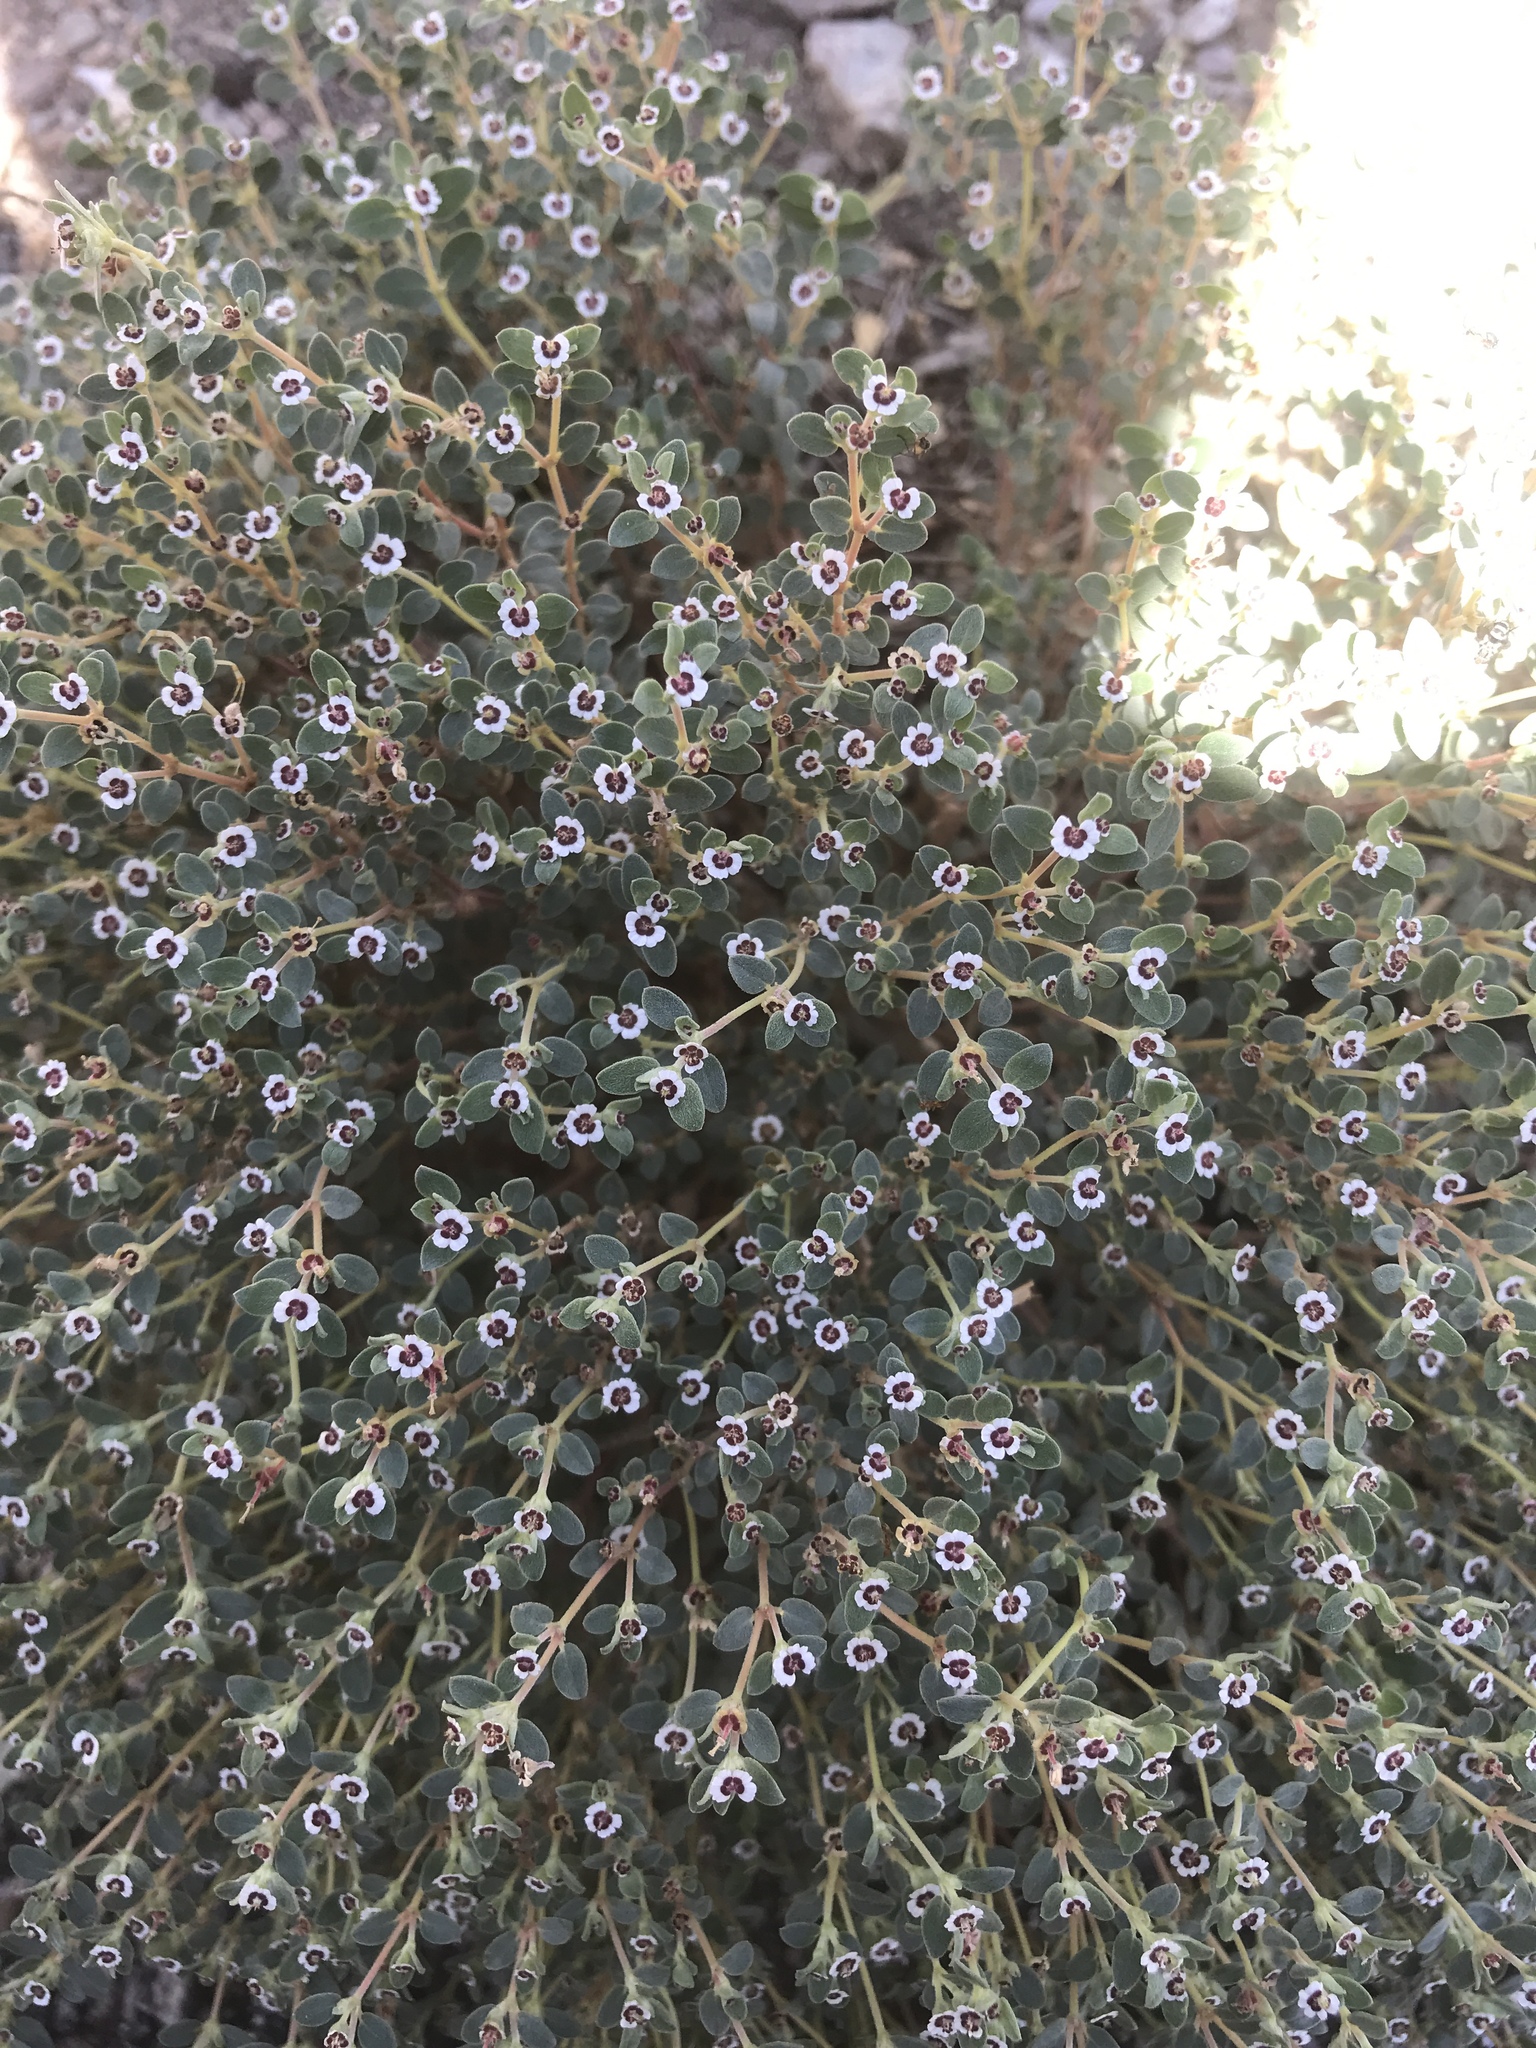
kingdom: Plantae
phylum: Tracheophyta
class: Magnoliopsida
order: Malpighiales
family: Euphorbiaceae
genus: Euphorbia
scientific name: Euphorbia polycarpa
